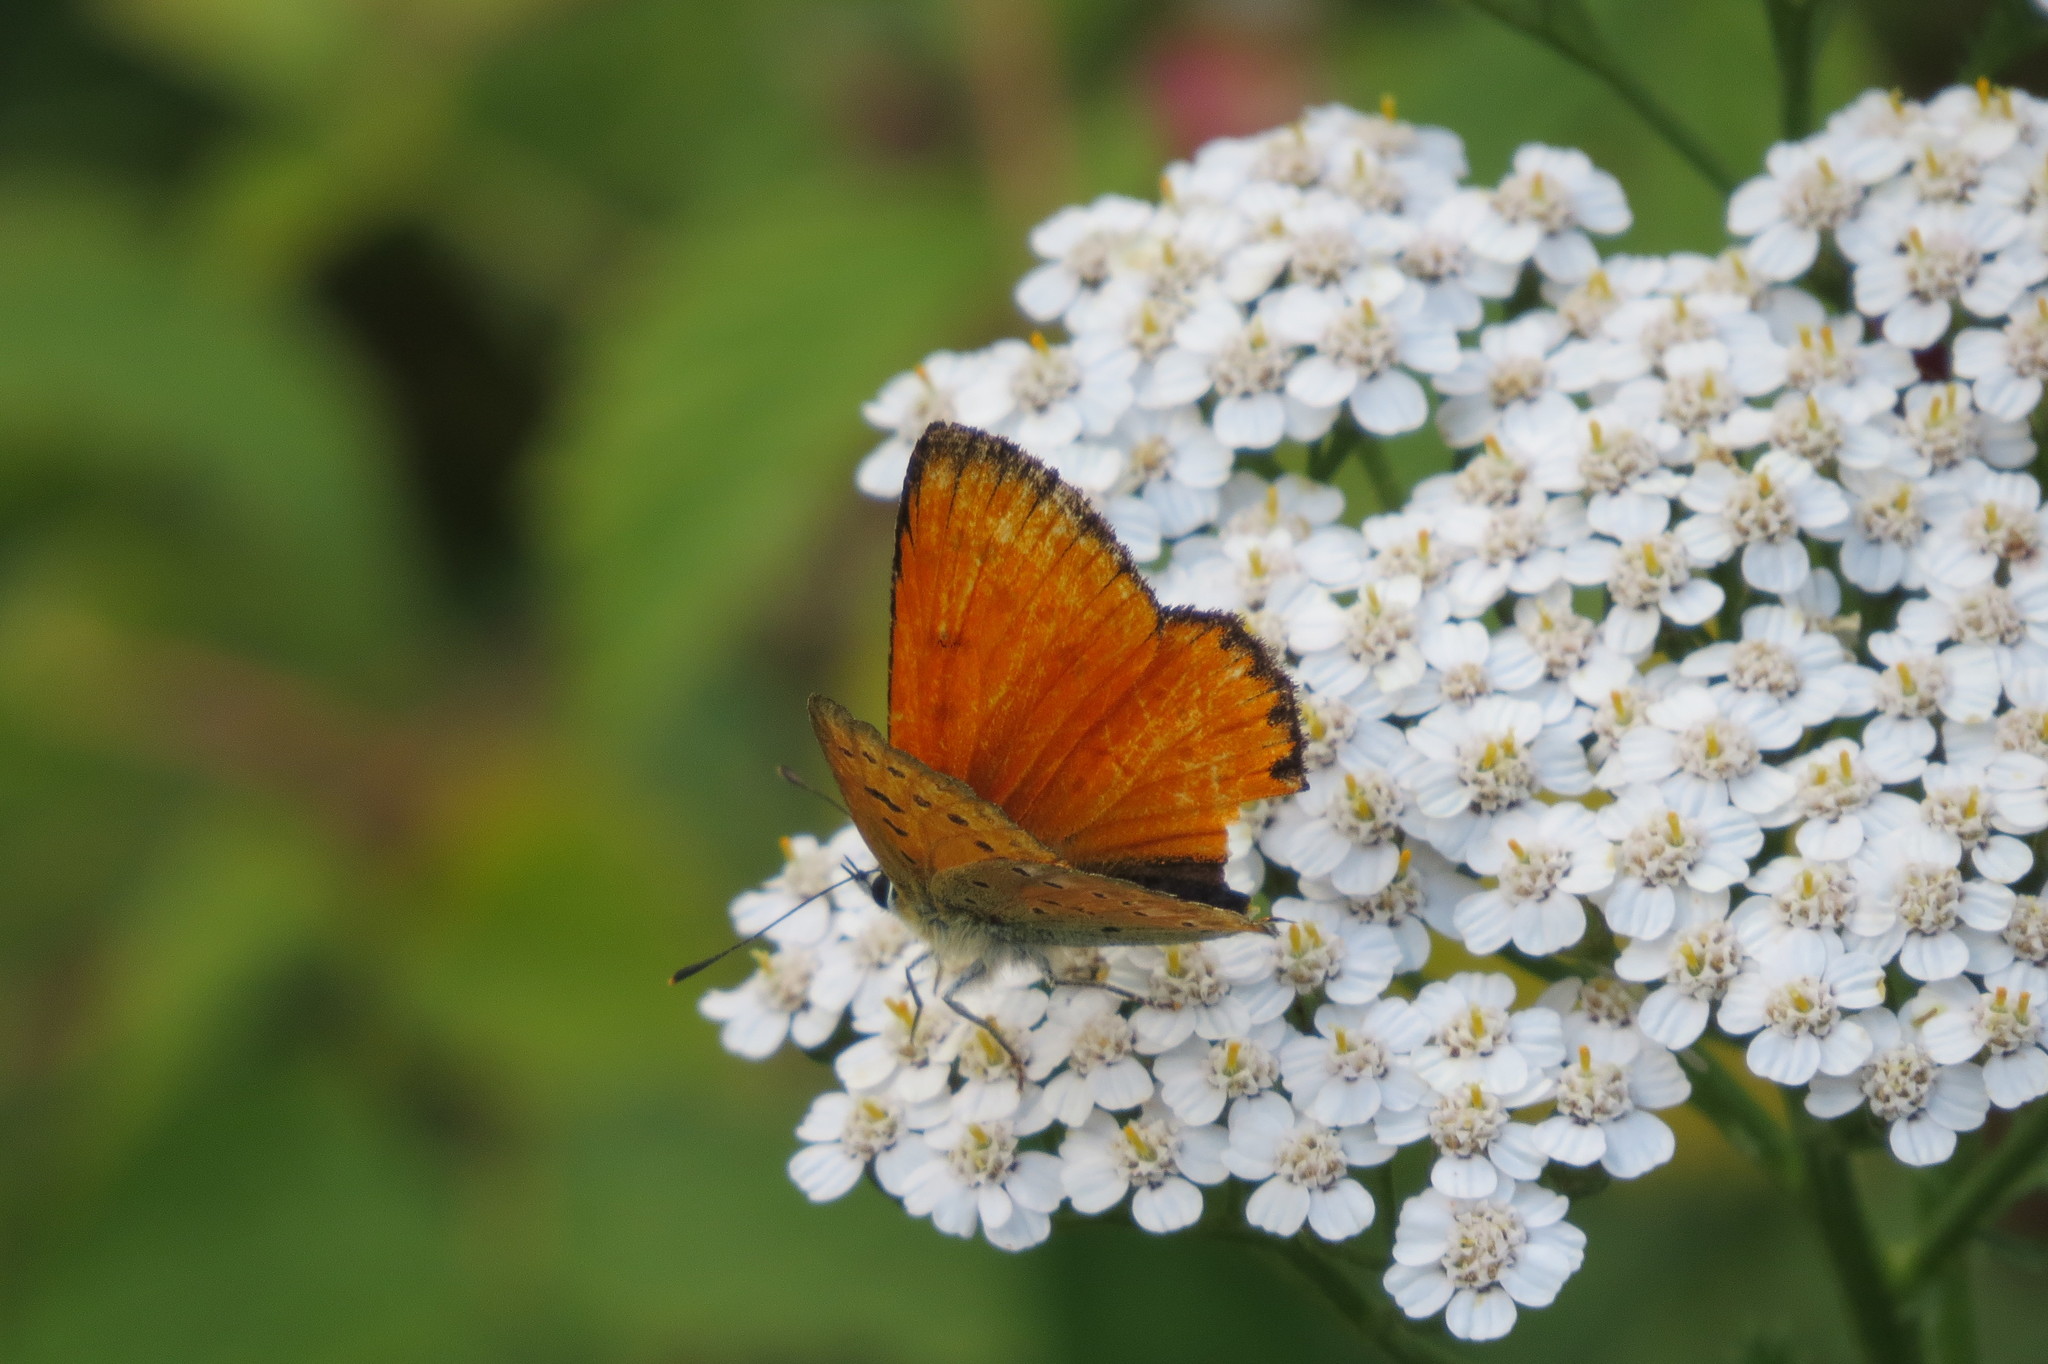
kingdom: Animalia
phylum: Arthropoda
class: Insecta
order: Lepidoptera
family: Lycaenidae
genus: Lycaena
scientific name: Lycaena virgaureae
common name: Scarce copper
